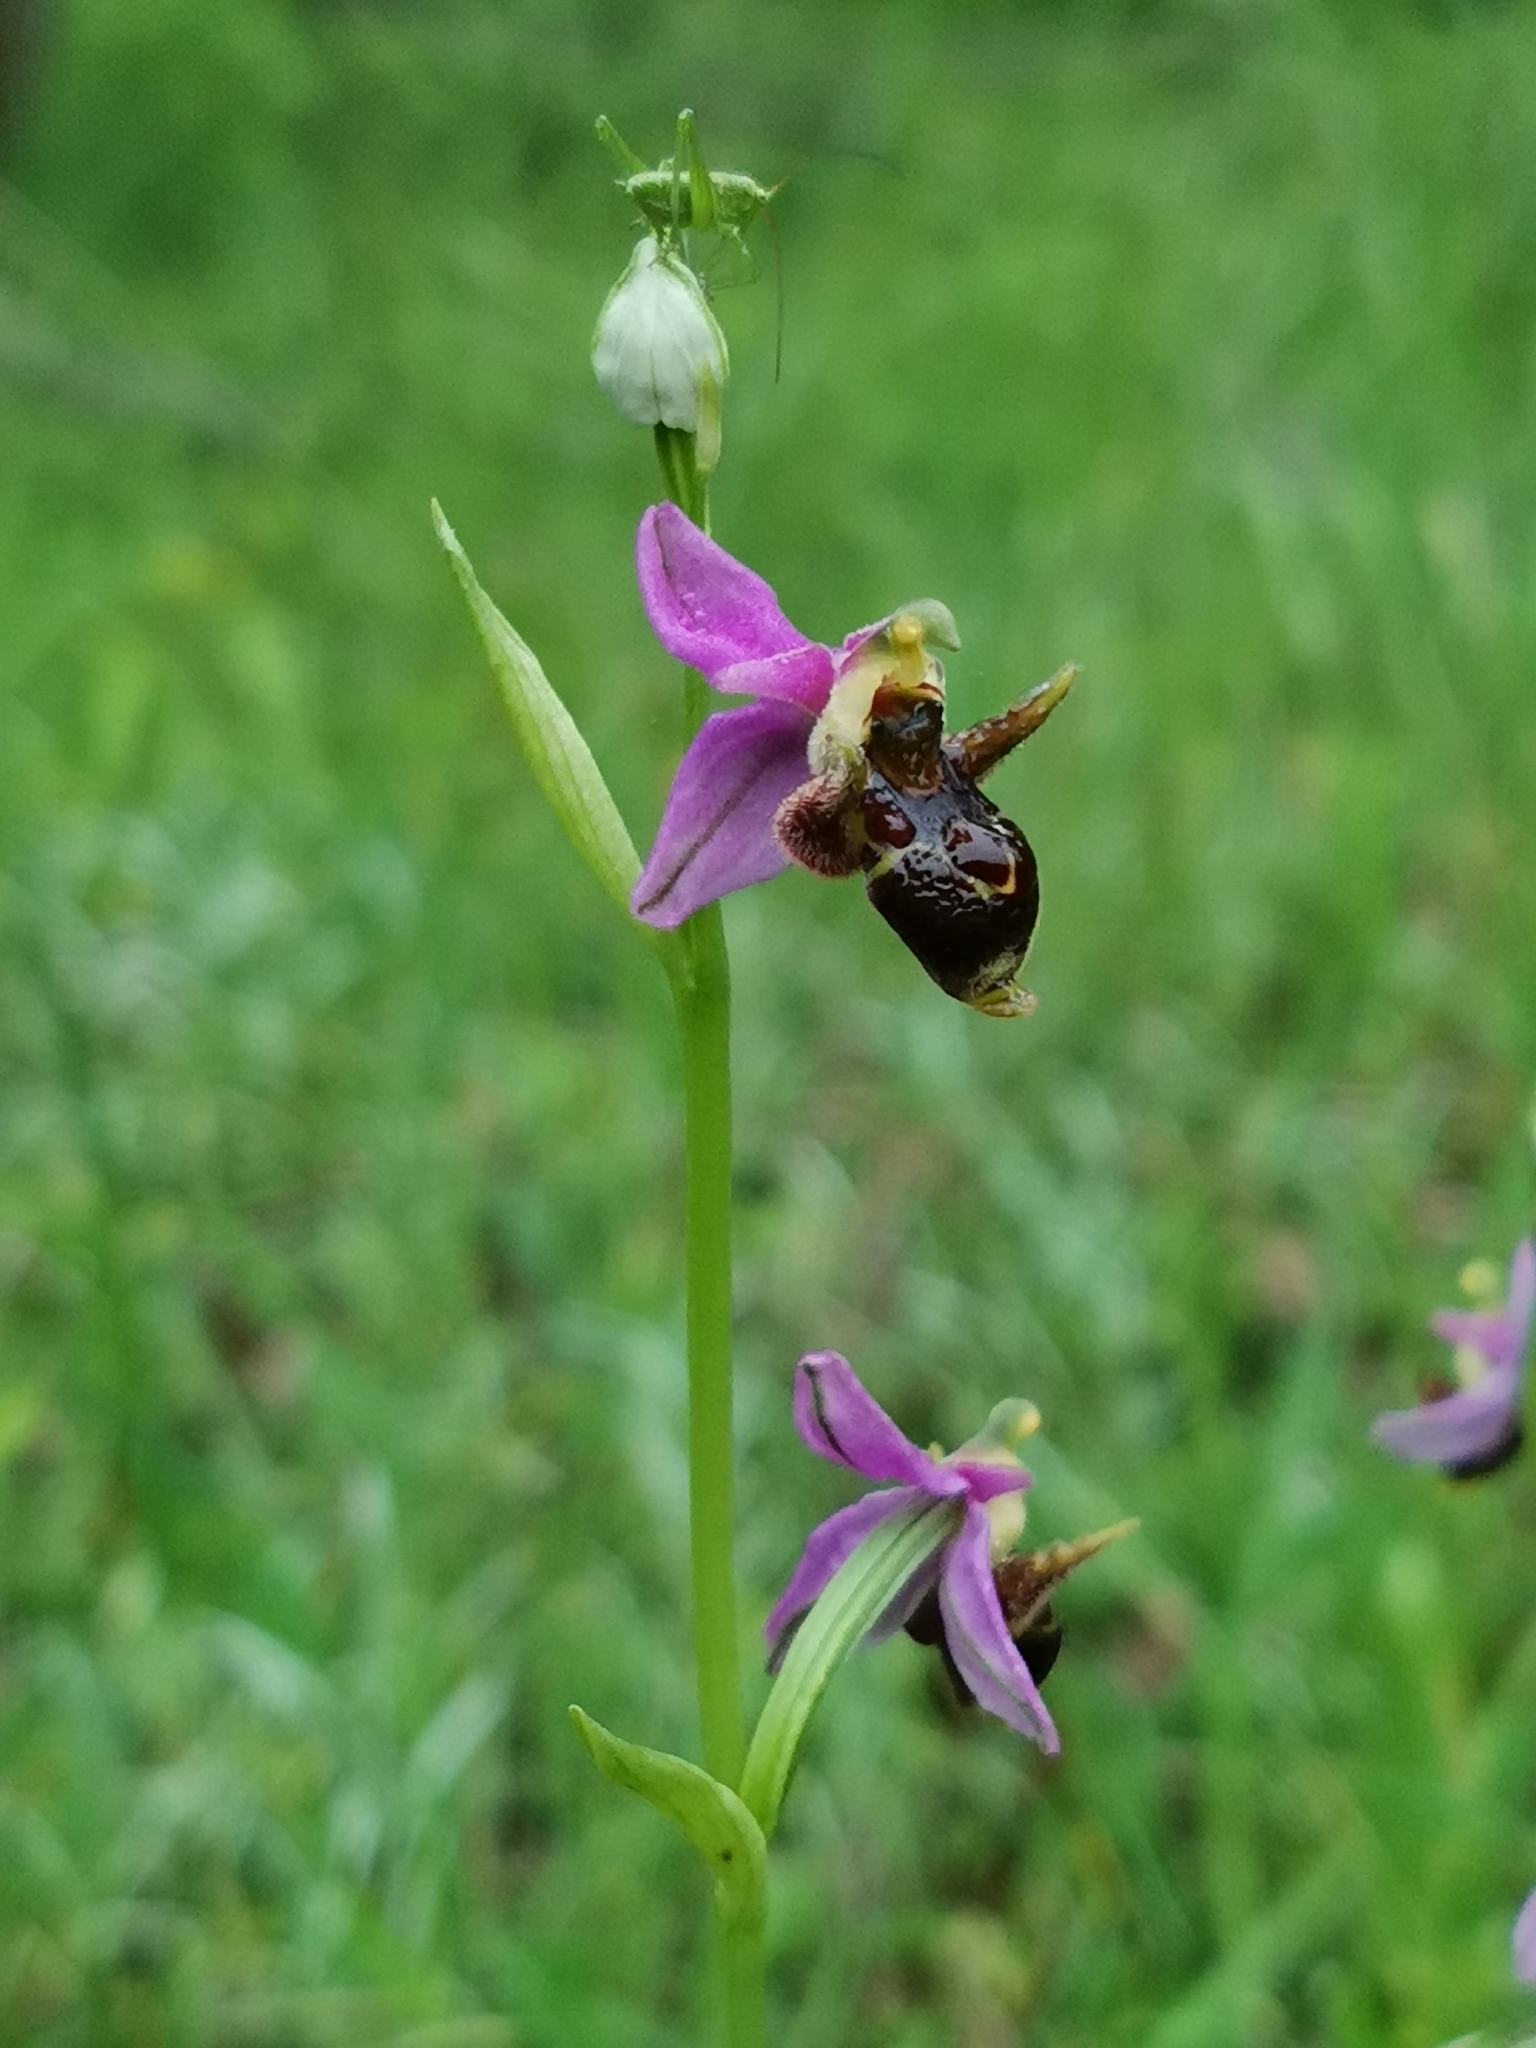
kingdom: Plantae
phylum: Tracheophyta
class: Liliopsida
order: Asparagales
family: Orchidaceae
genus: Ophrys
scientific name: Ophrys
